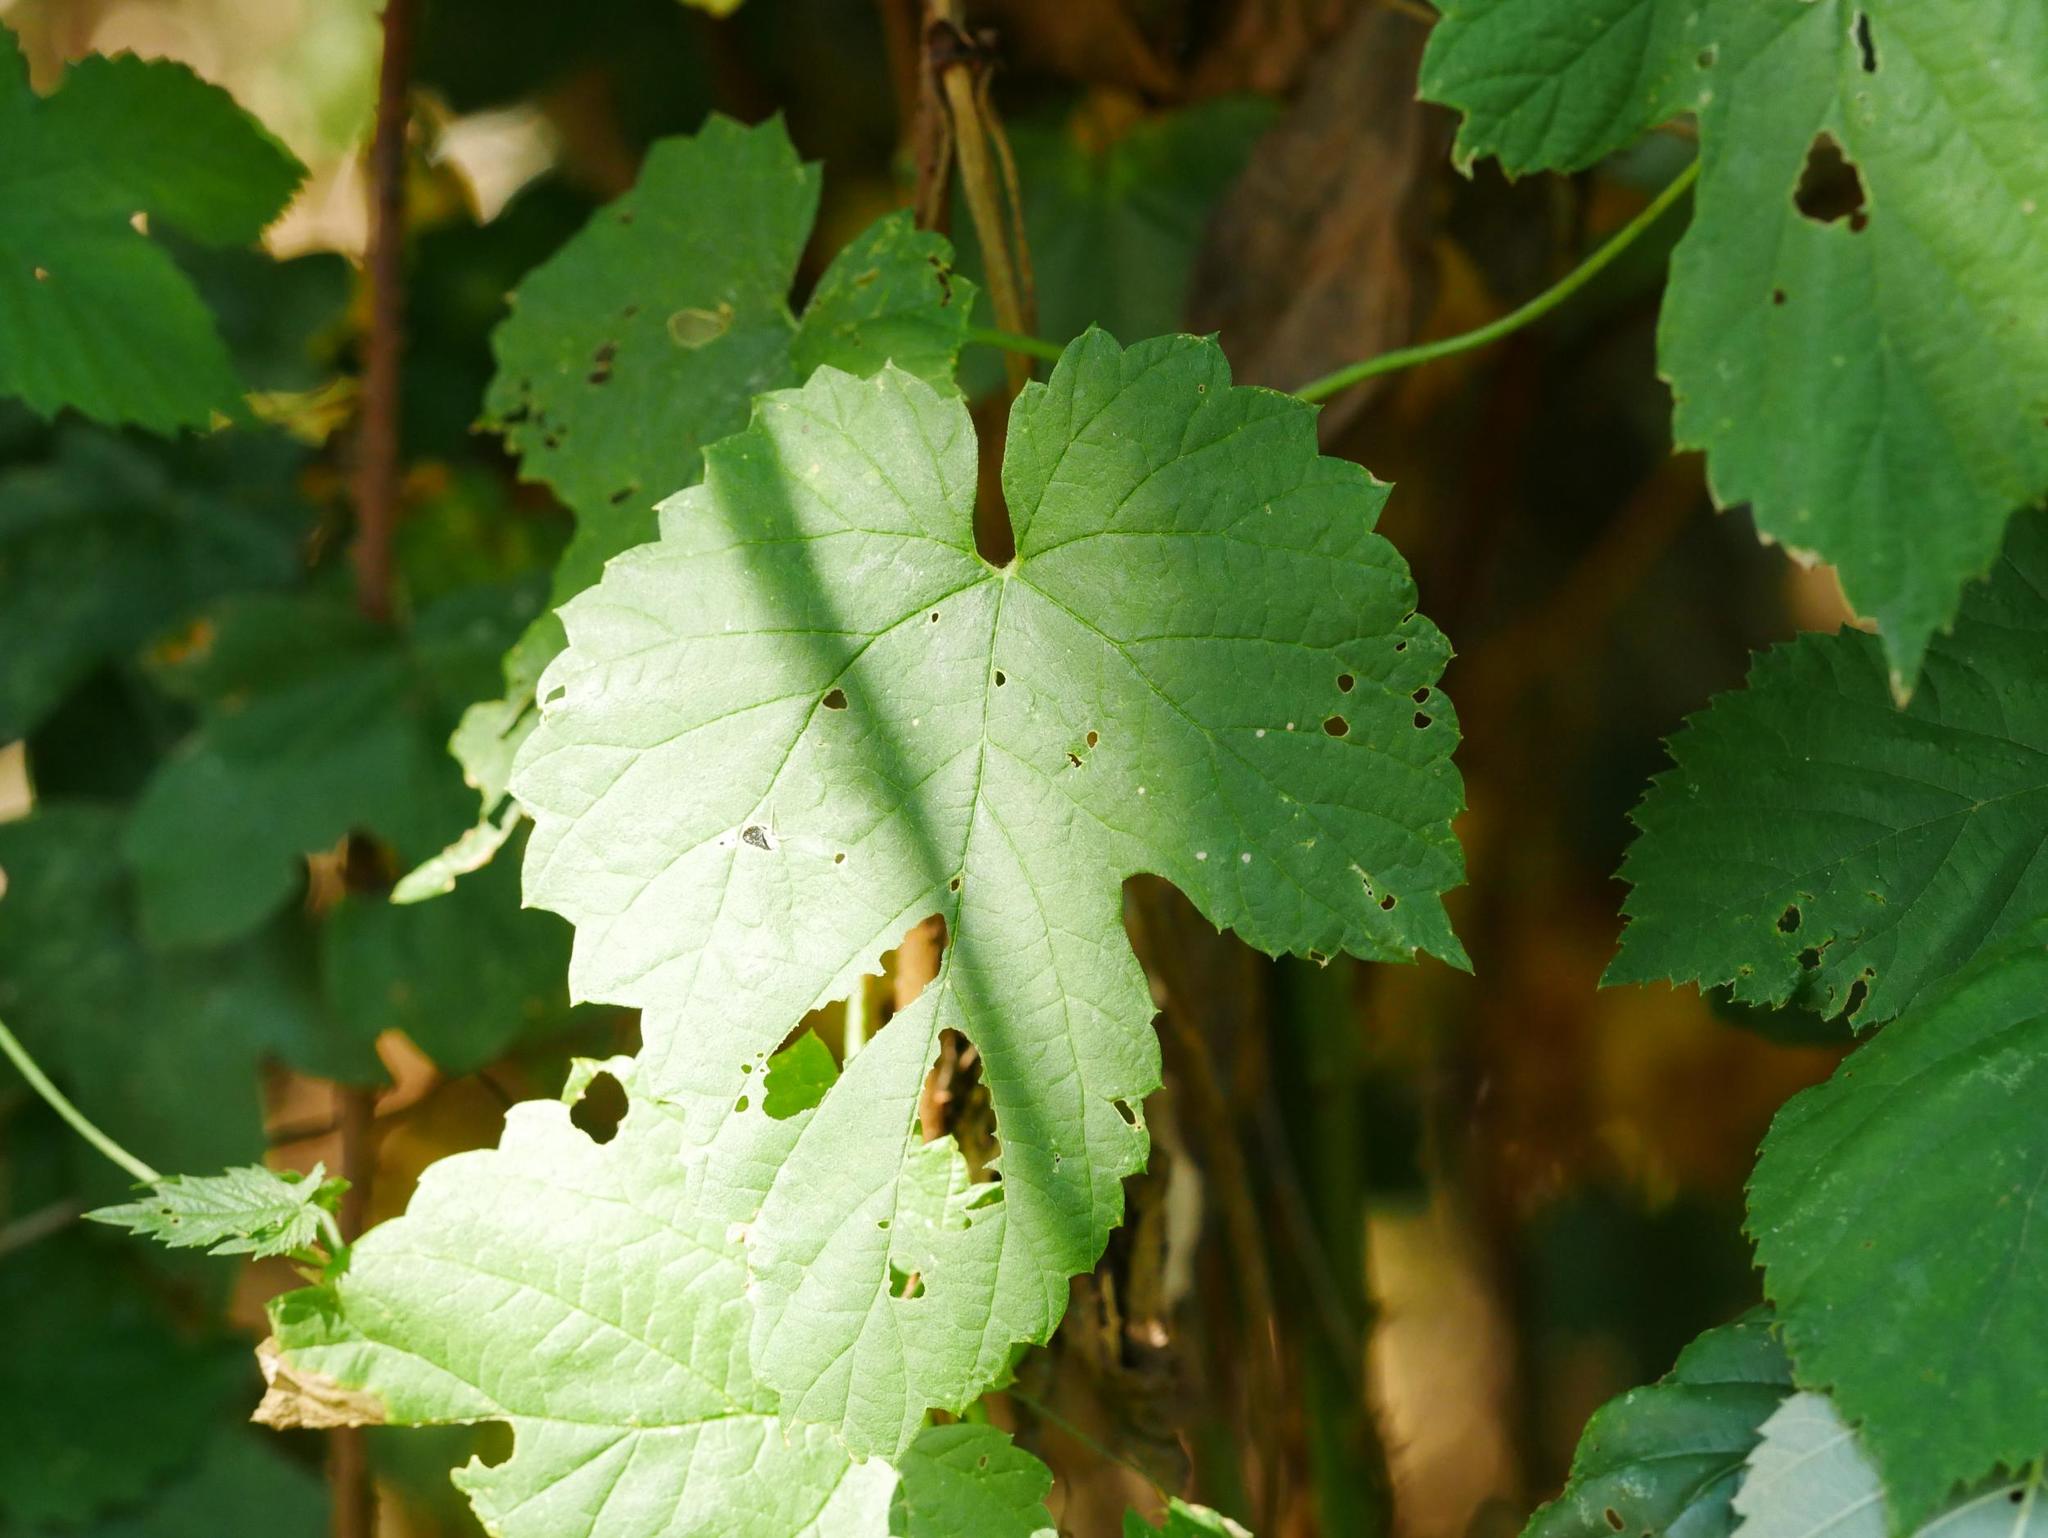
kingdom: Plantae
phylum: Tracheophyta
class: Magnoliopsida
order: Rosales
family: Cannabaceae
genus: Humulus
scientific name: Humulus lupulus
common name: Hop
